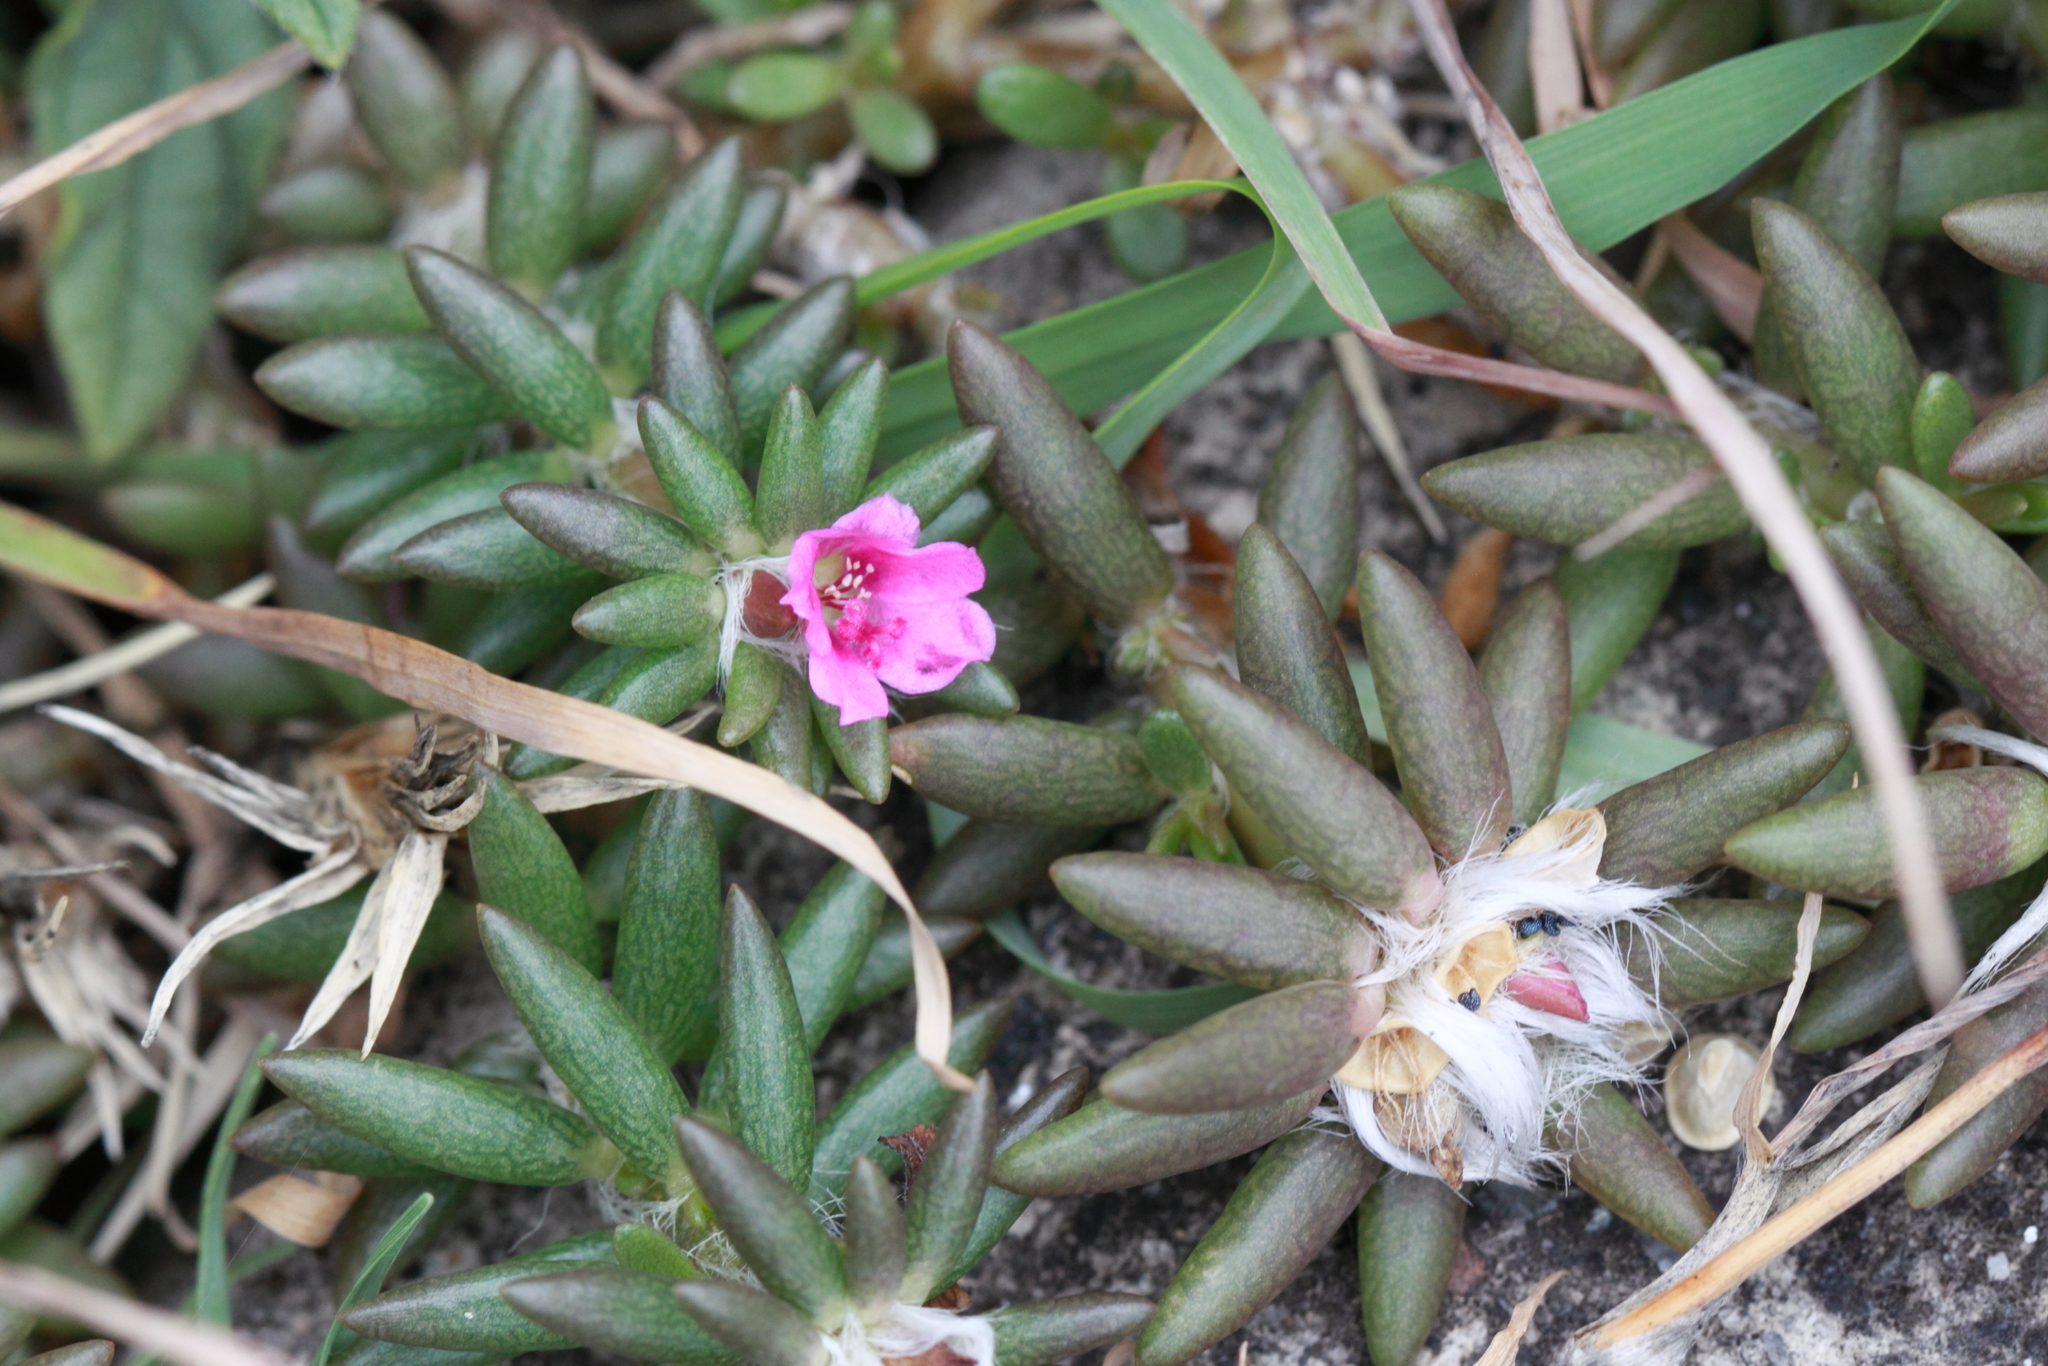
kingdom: Plantae
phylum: Tracheophyta
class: Magnoliopsida
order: Caryophyllales
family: Portulacaceae
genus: Portulaca
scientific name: Portulaca pilosa
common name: Kiss me quick
